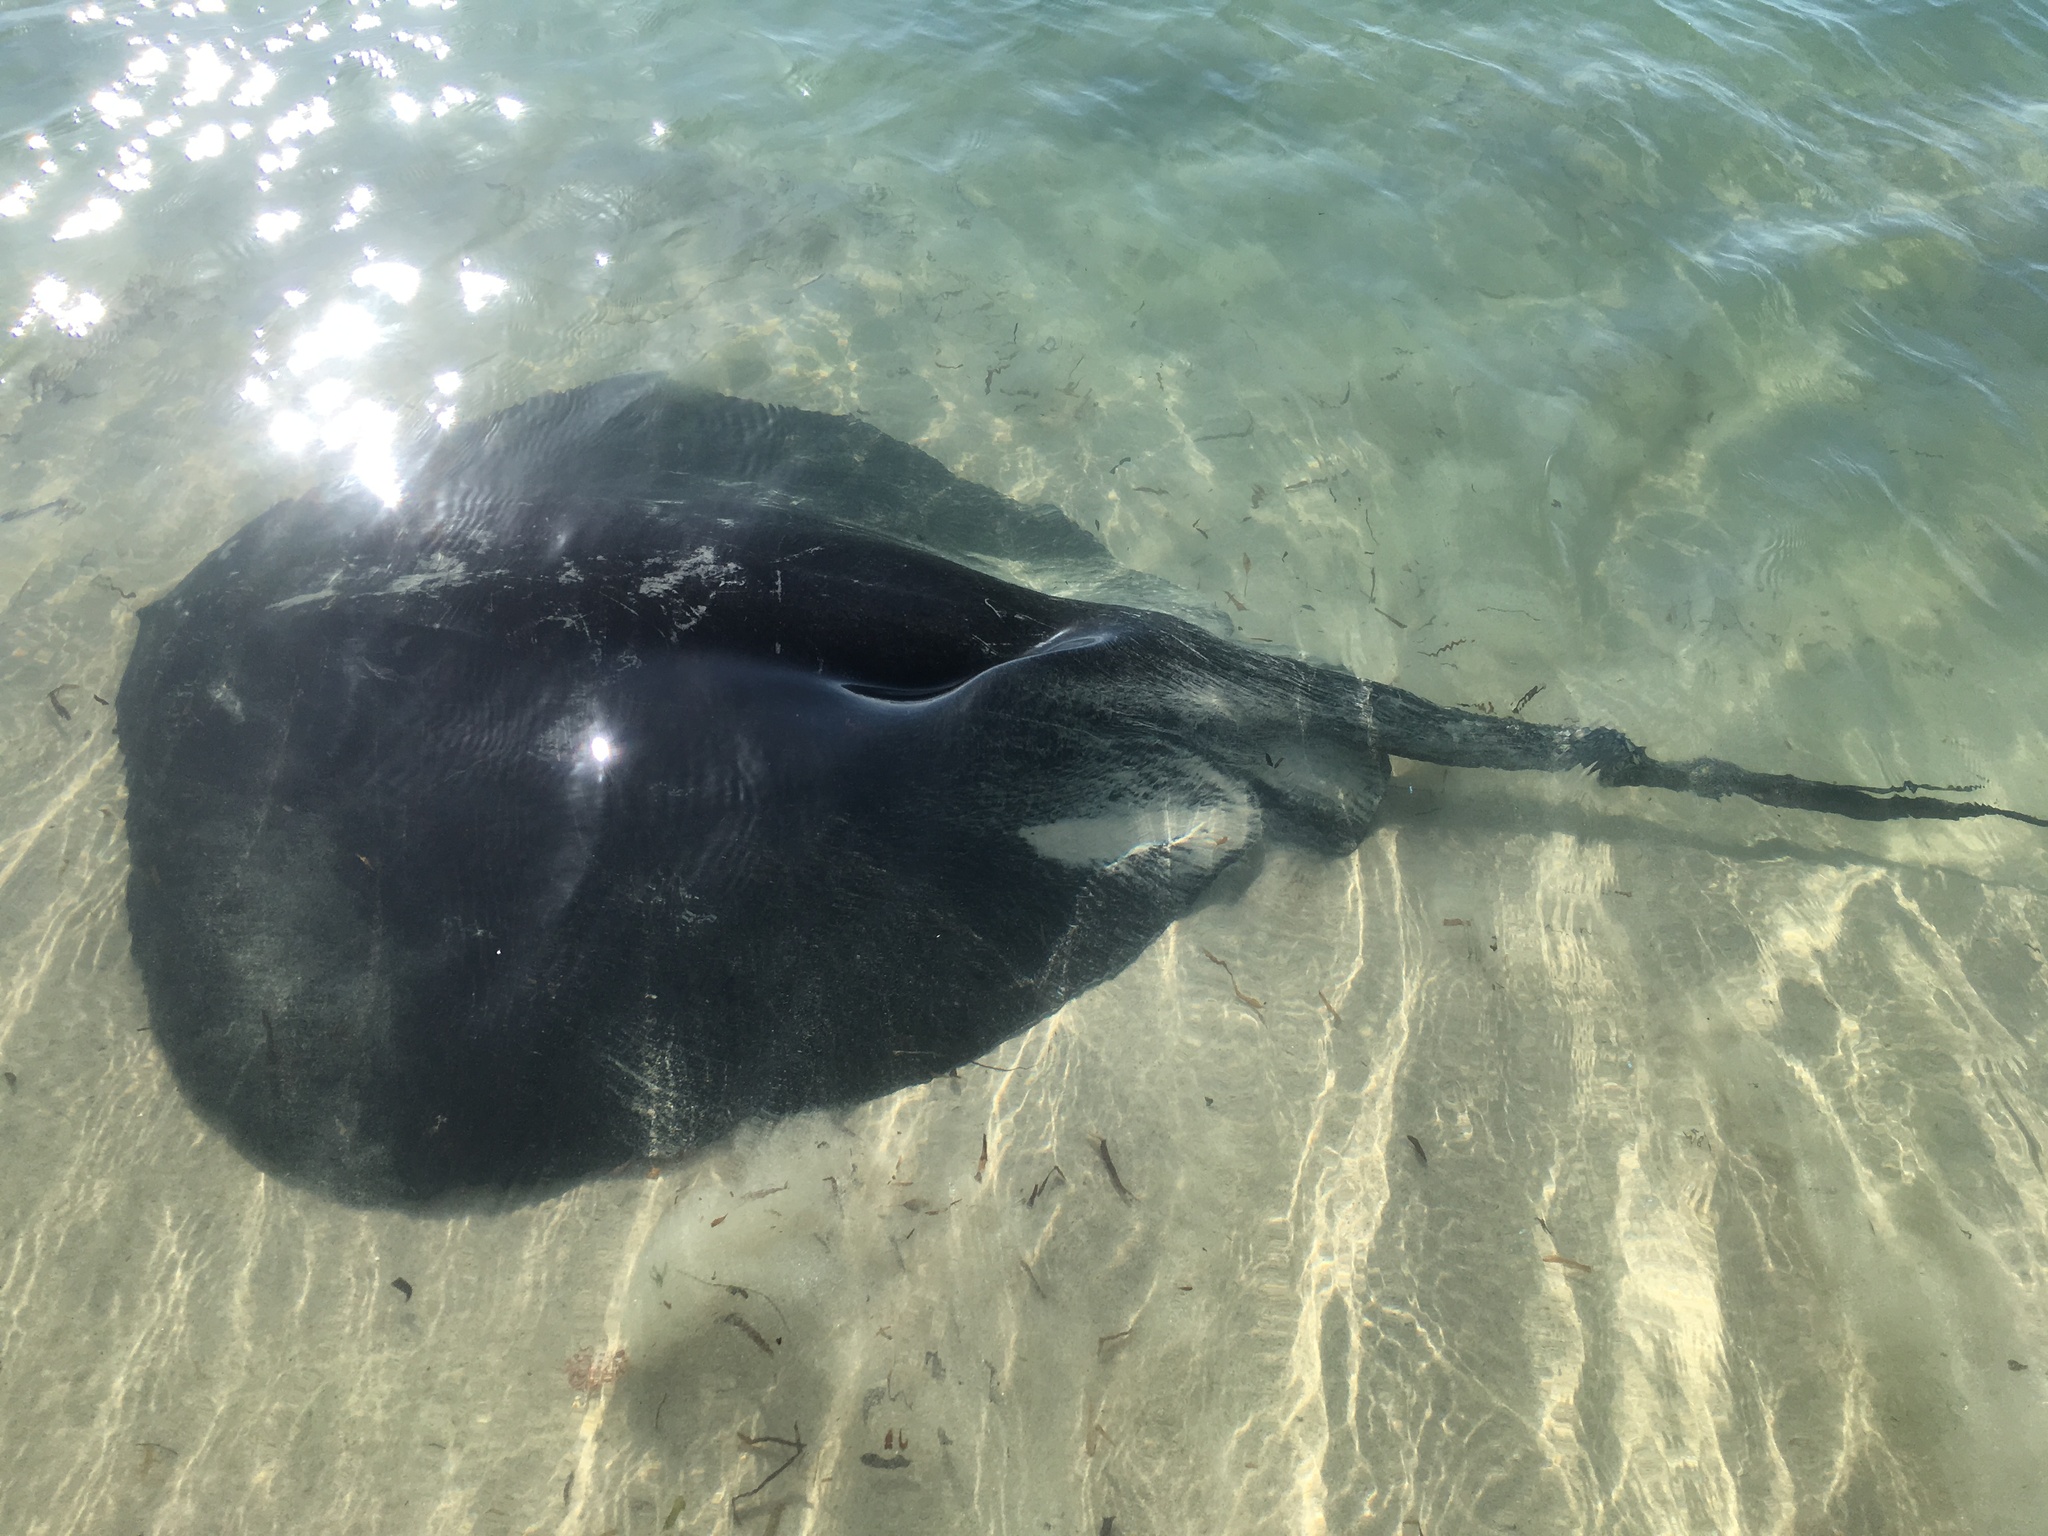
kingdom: Animalia
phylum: Chordata
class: Elasmobranchii
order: Myliobatiformes
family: Dasyatidae
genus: Bathytoshia
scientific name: Bathytoshia brevicaudata
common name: Short-tail stingray
